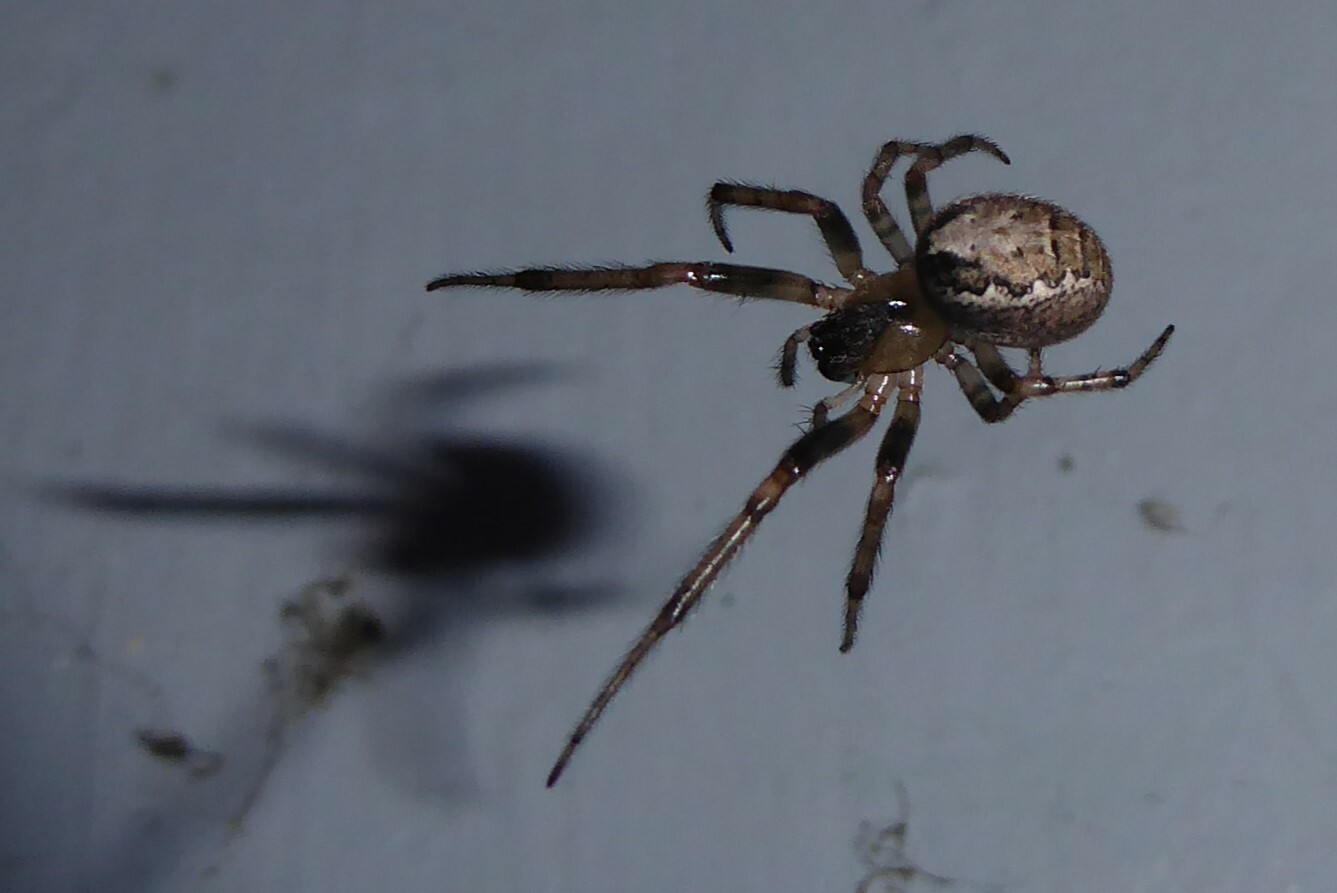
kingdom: Animalia
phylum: Arthropoda
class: Arachnida
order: Araneae
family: Araneidae
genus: Zygiella
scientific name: Zygiella x-notata
